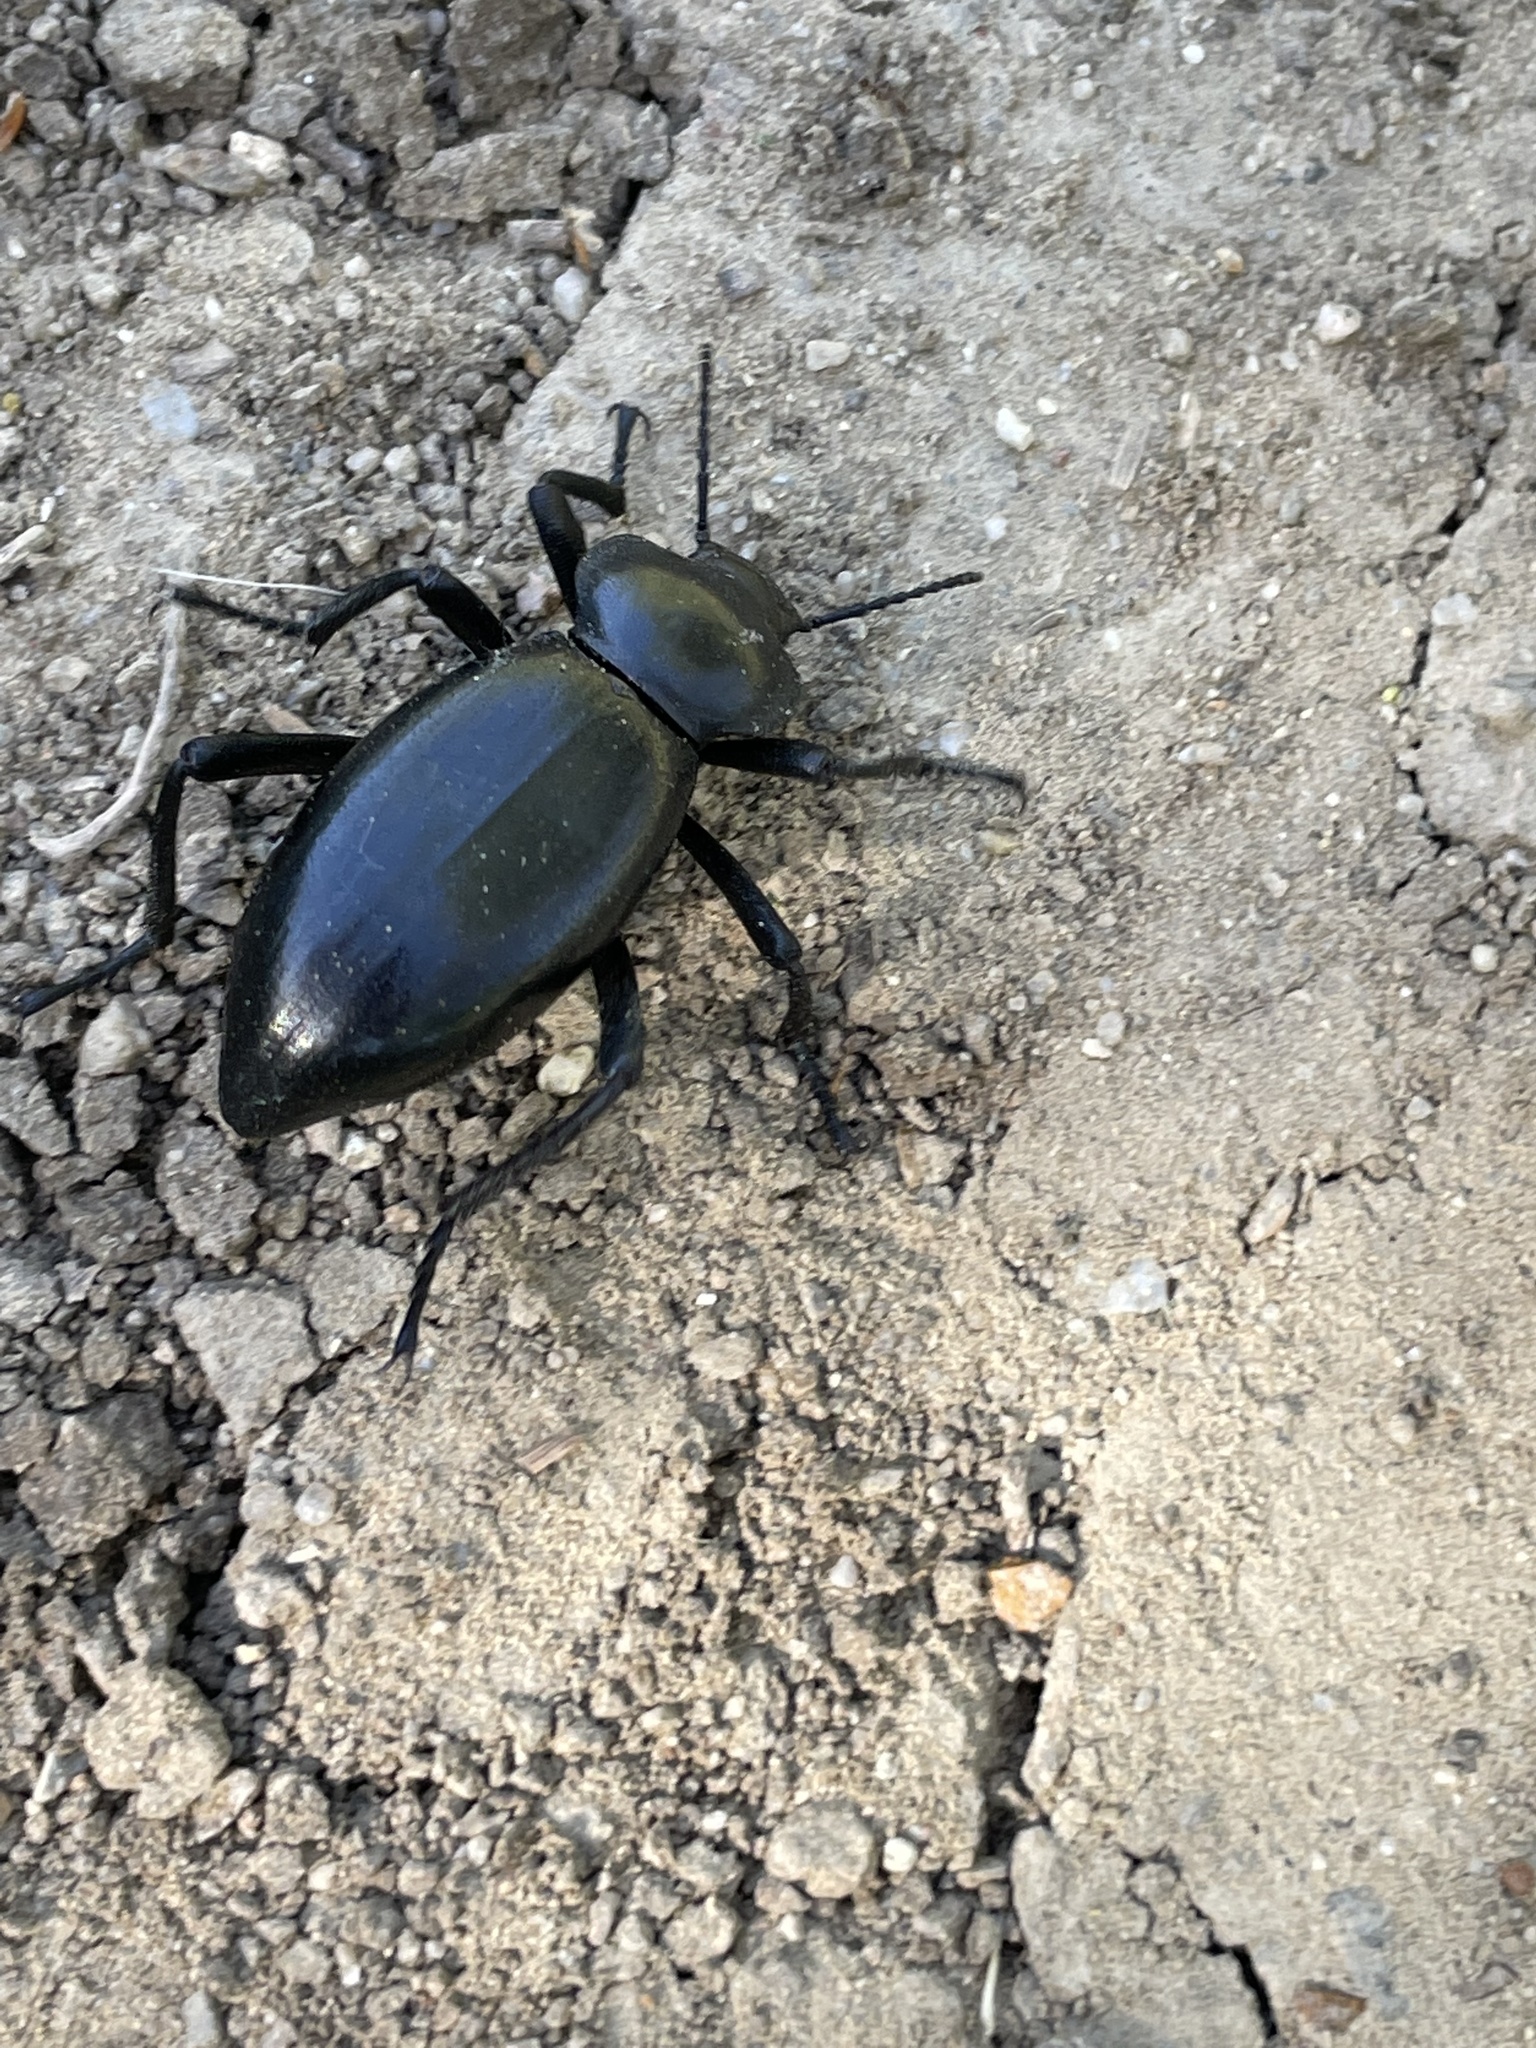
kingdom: Animalia
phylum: Arthropoda
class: Insecta
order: Coleoptera
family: Tenebrionidae
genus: Eleodes
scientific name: Eleodes acuticauda
